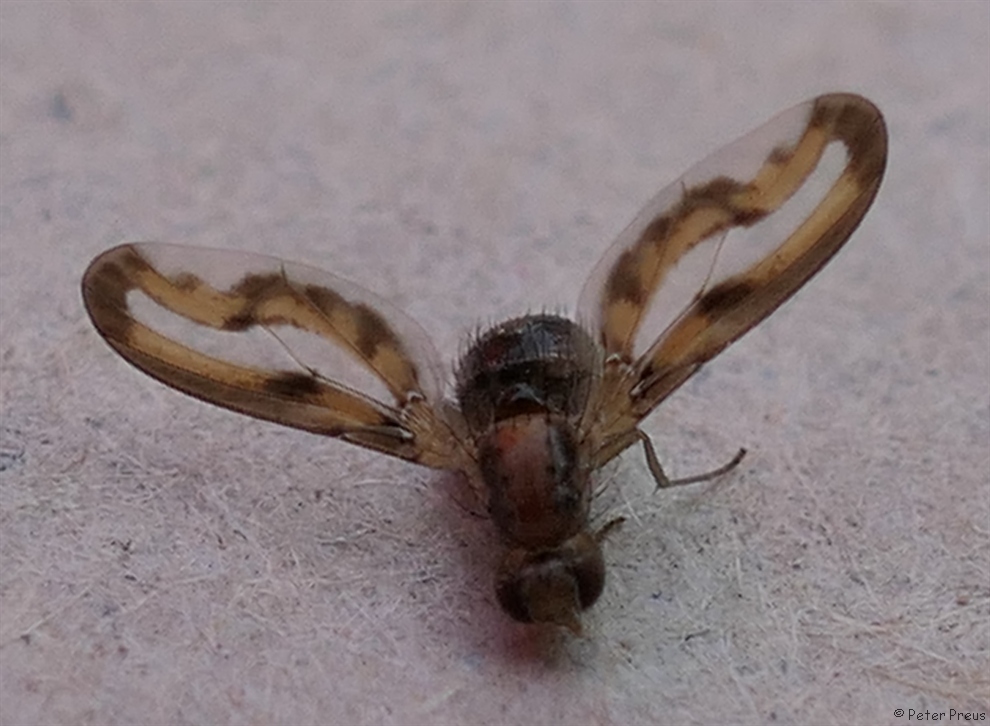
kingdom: Animalia
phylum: Arthropoda
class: Insecta
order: Diptera
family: Pallopteridae
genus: Toxonevra
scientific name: Toxonevra muliebris
